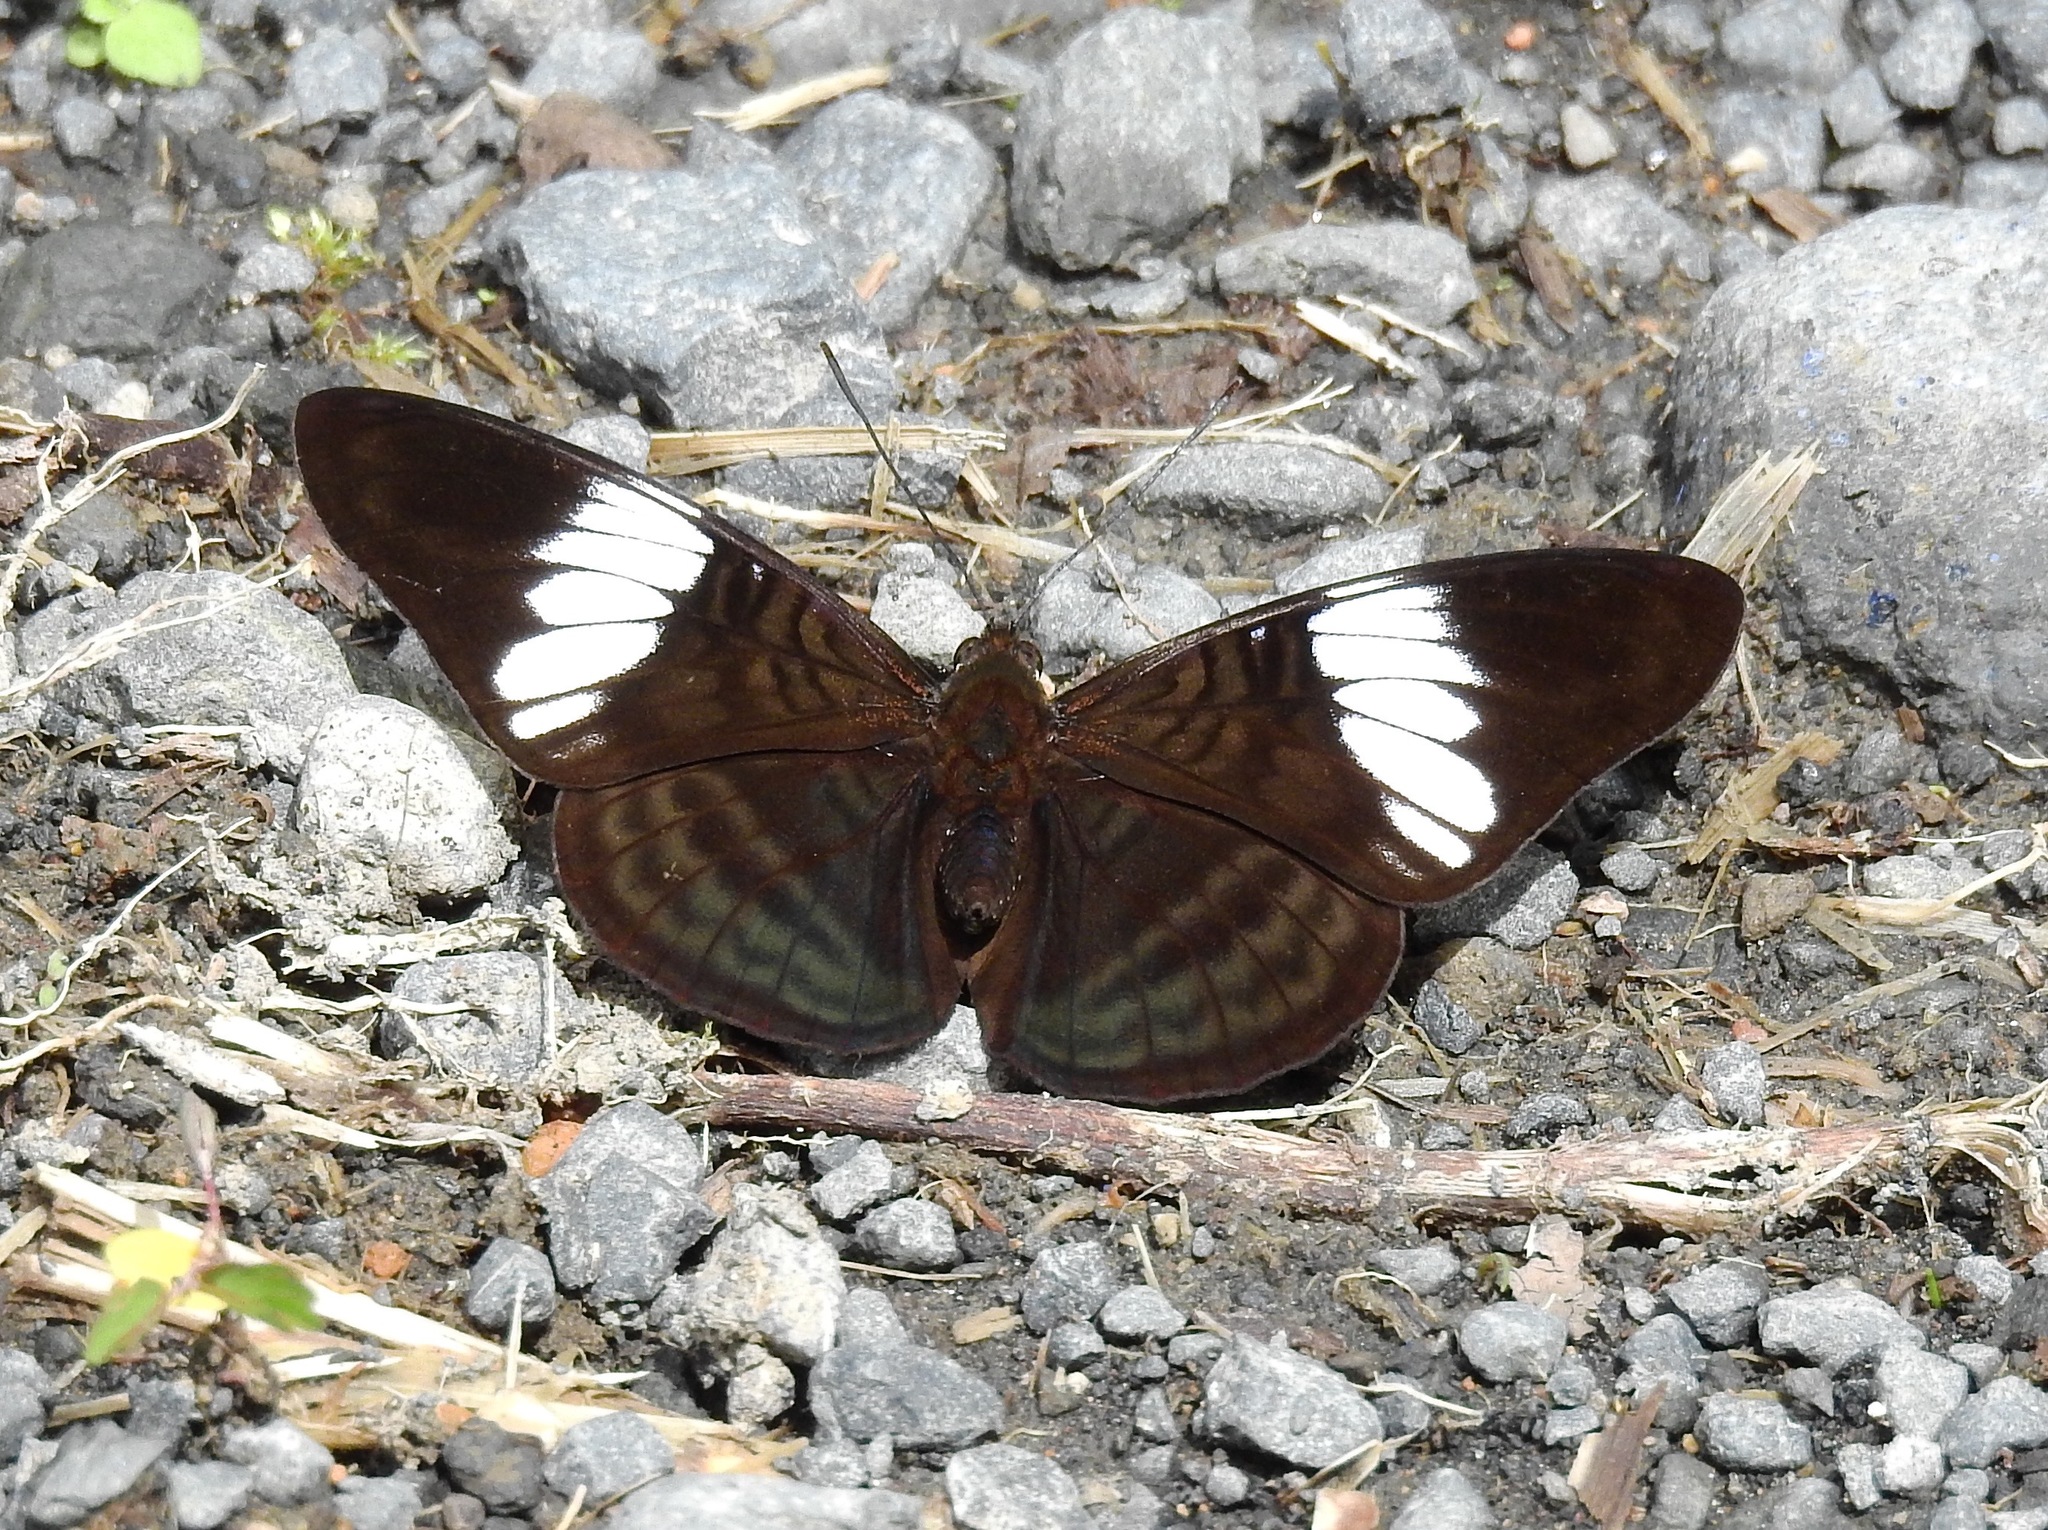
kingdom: Animalia
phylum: Arthropoda
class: Insecta
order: Lepidoptera
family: Nymphalidae
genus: Limenitis
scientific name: Limenitis epione
